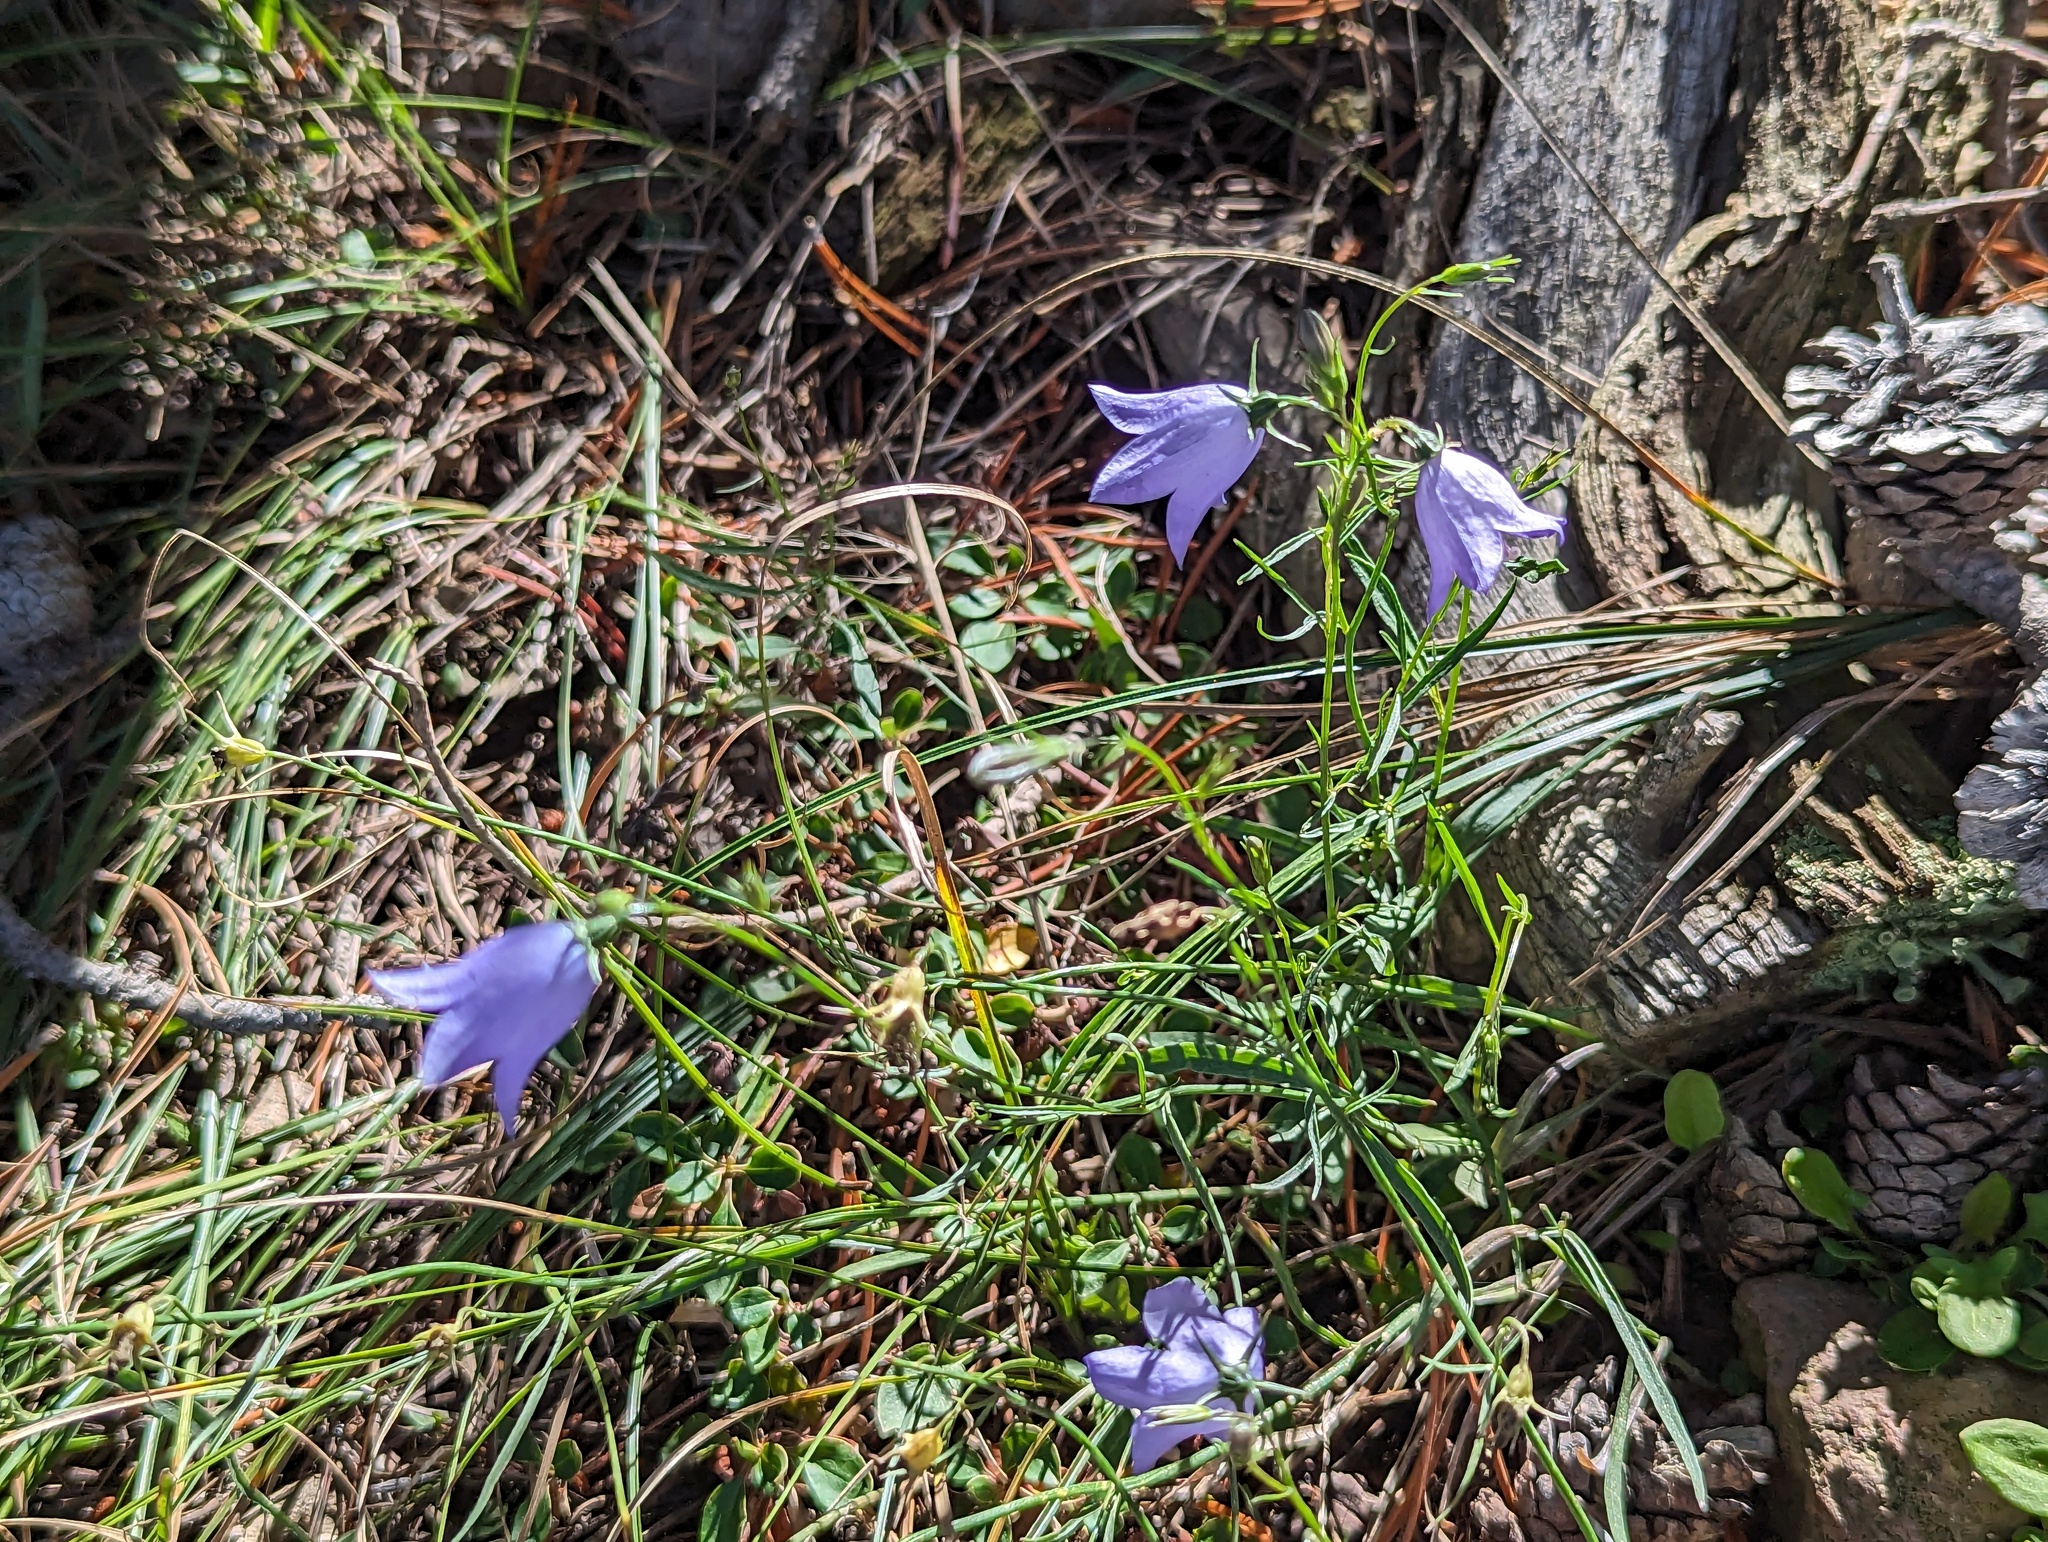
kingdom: Plantae
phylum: Tracheophyta
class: Magnoliopsida
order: Asterales
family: Campanulaceae
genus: Campanula
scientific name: Campanula
